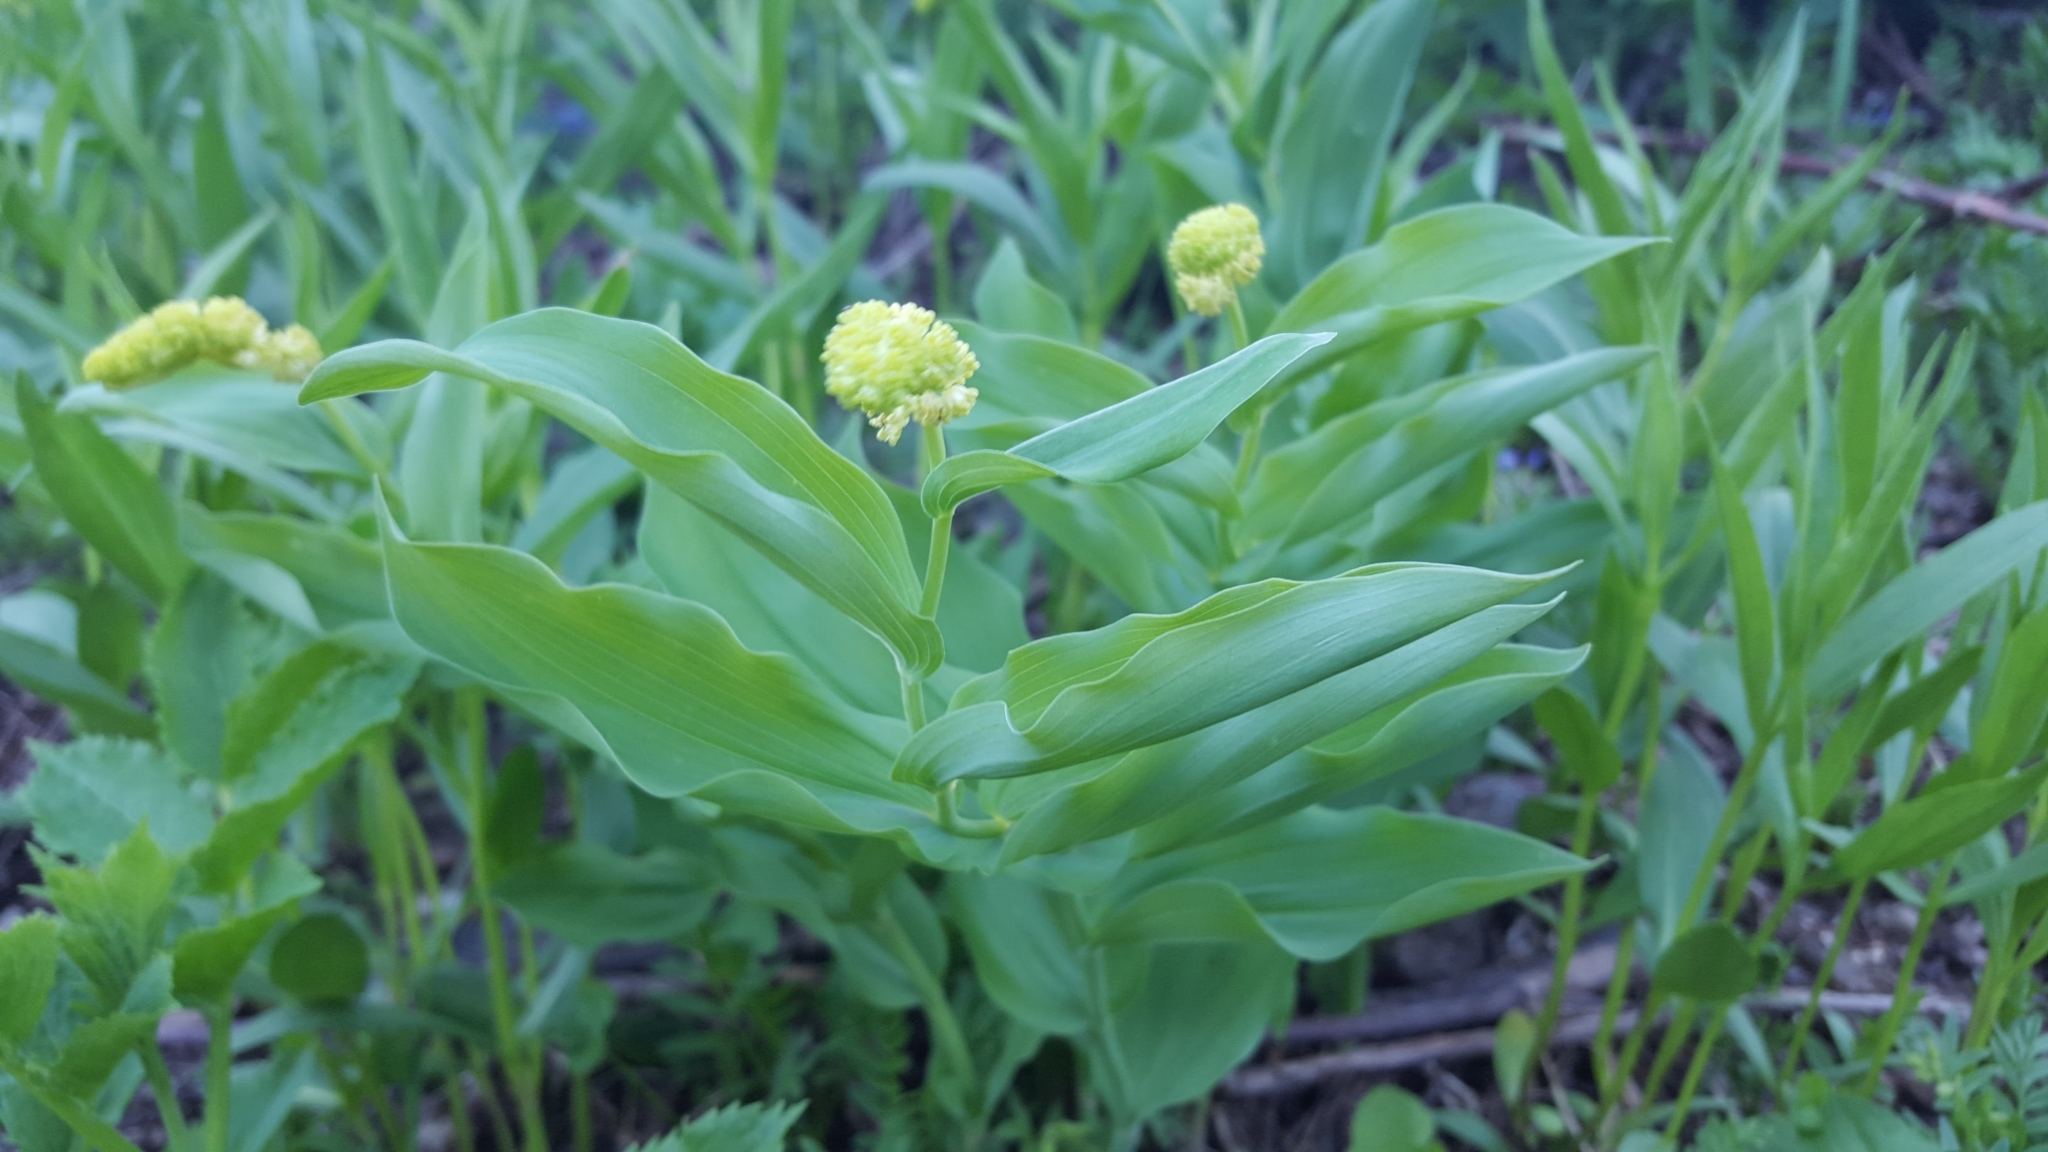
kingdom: Plantae
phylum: Tracheophyta
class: Liliopsida
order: Asparagales
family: Asparagaceae
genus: Maianthemum
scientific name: Maianthemum racemosum
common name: False spikenard
